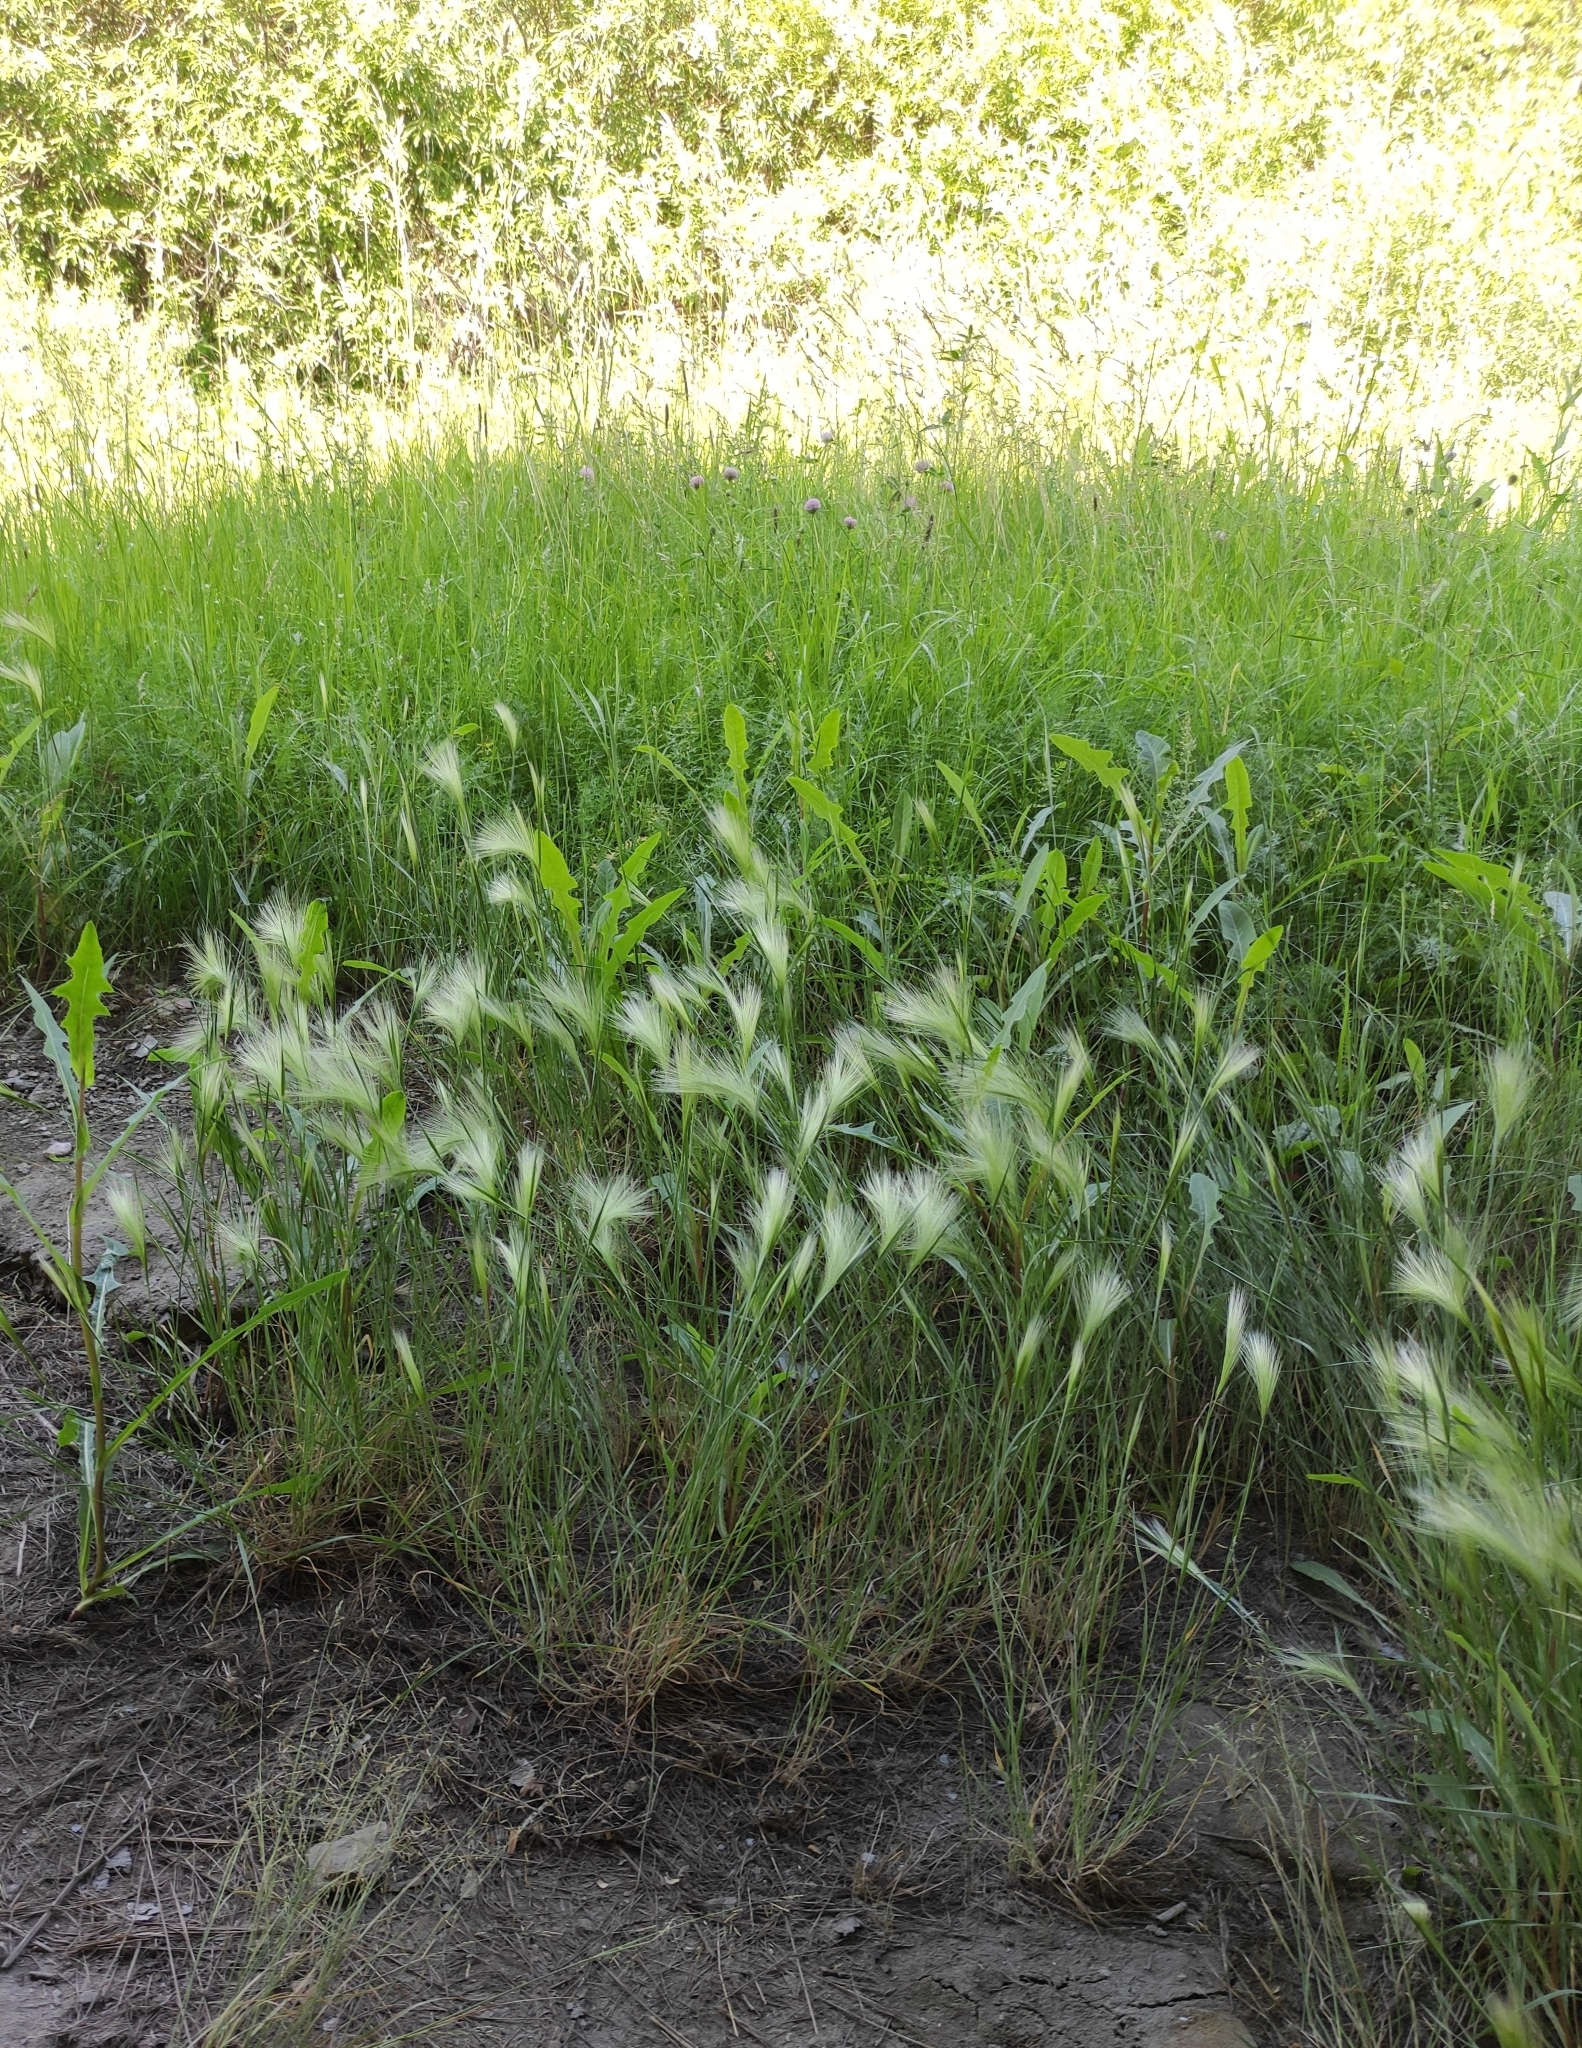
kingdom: Plantae
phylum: Tracheophyta
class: Liliopsida
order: Poales
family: Poaceae
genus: Hordeum
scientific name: Hordeum jubatum
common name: Foxtail barley
